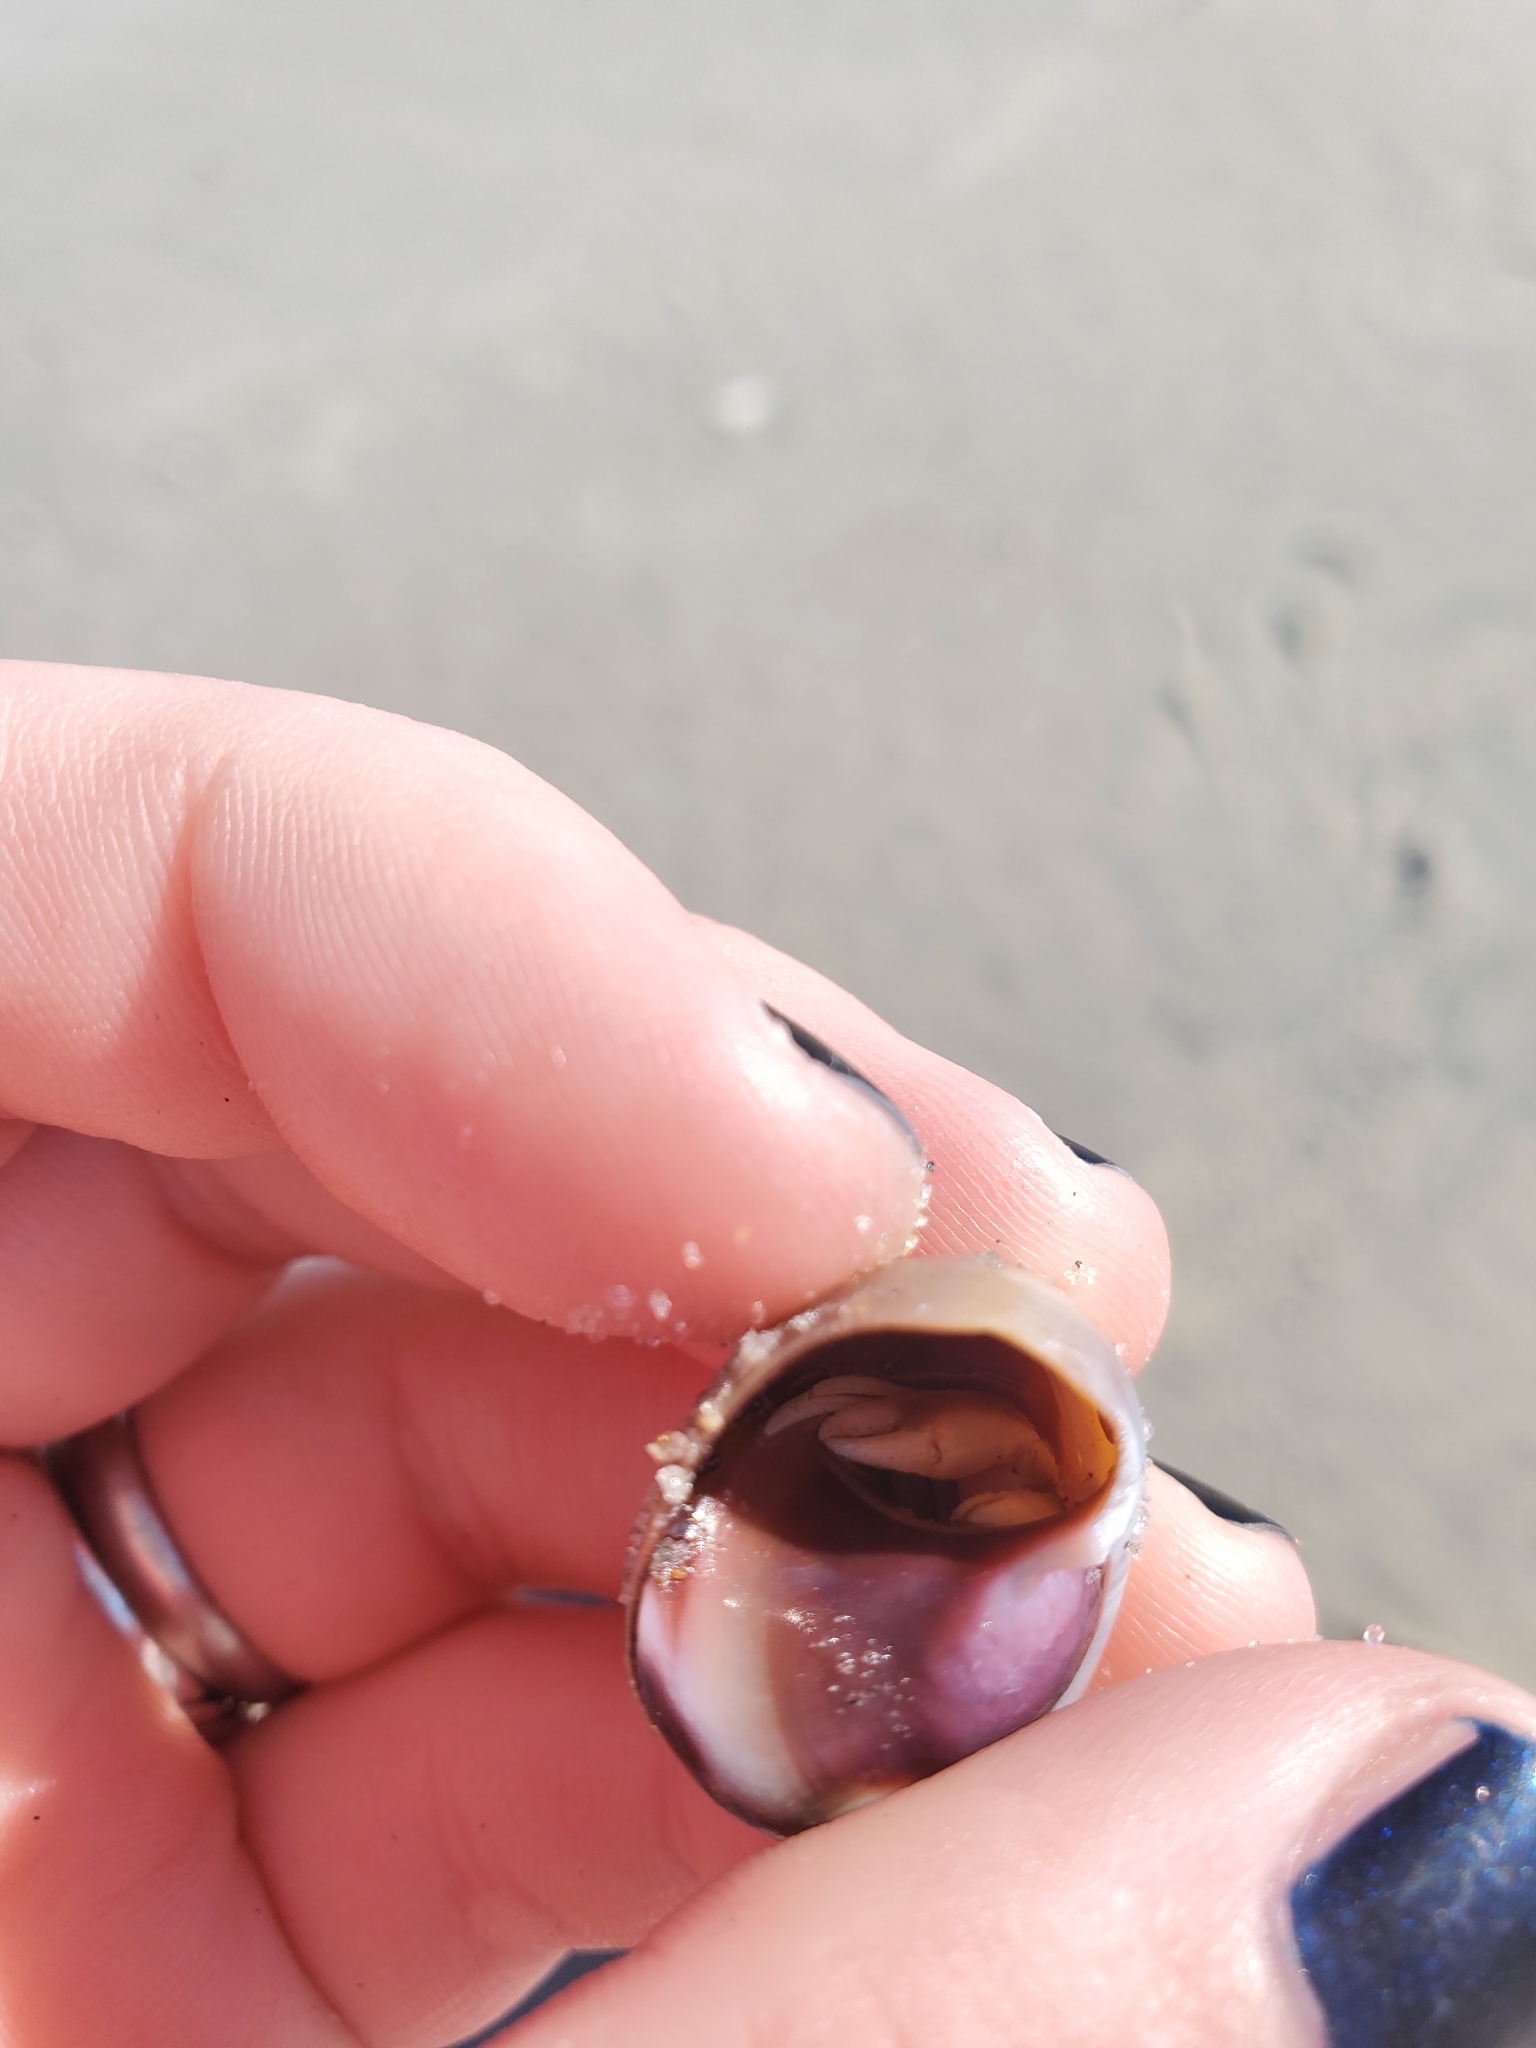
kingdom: Animalia
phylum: Arthropoda
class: Malacostraca
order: Decapoda
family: Paguridae
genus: Pagurus
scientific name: Pagurus longicarpus
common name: Long-armed hermit crab
